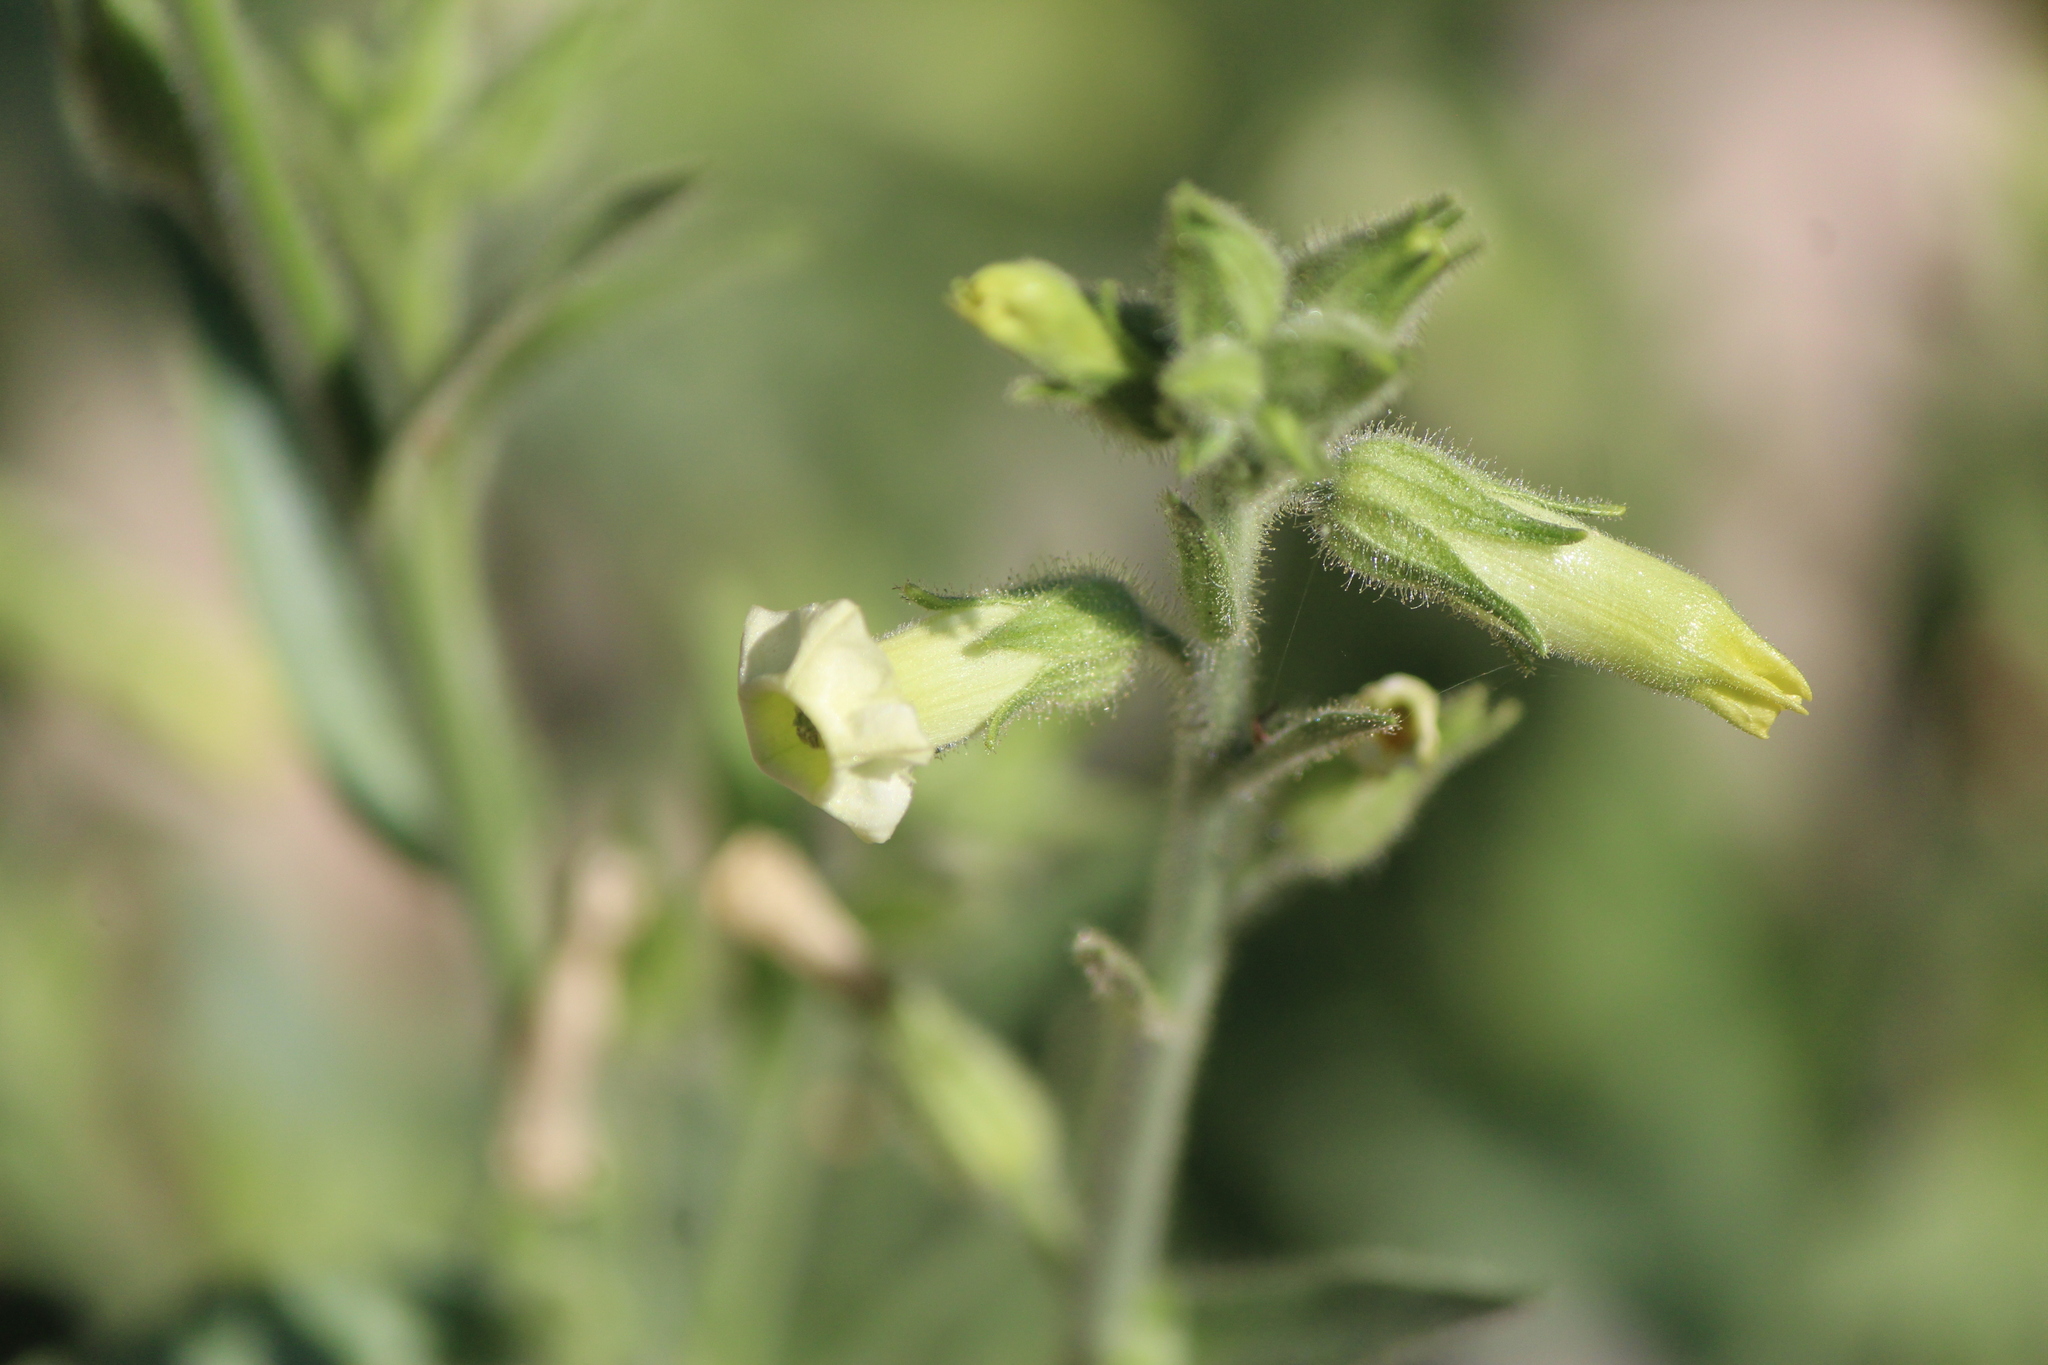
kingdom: Plantae
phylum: Tracheophyta
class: Magnoliopsida
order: Solanales
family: Solanaceae
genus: Nicotiana
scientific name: Nicotiana obtusifolia
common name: Desert tobacco
